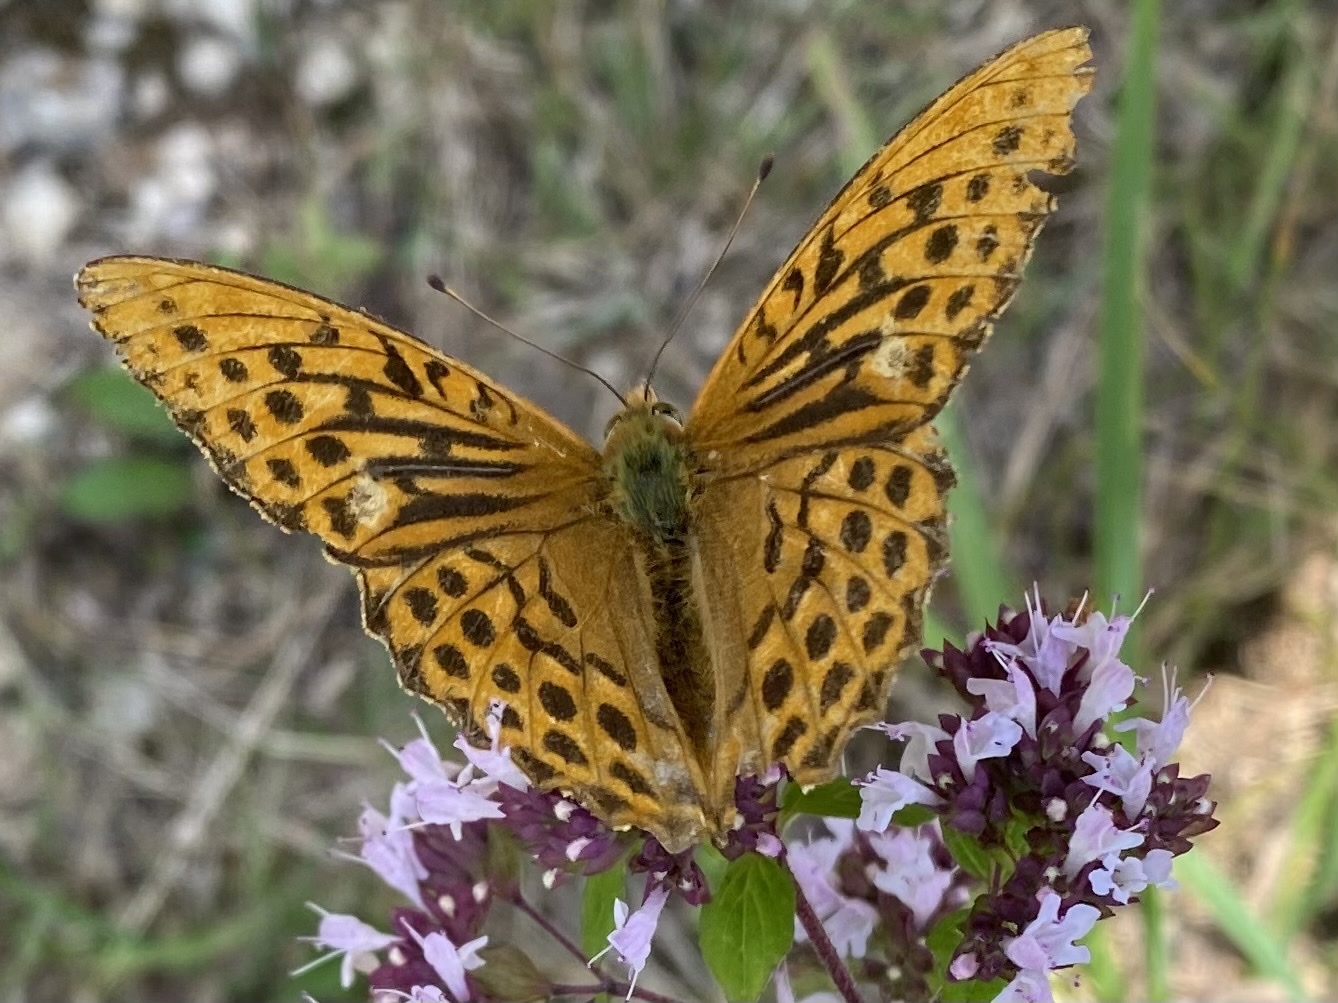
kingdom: Animalia
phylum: Arthropoda
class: Insecta
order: Lepidoptera
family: Nymphalidae
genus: Argynnis
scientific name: Argynnis paphia
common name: Silver-washed fritillary
